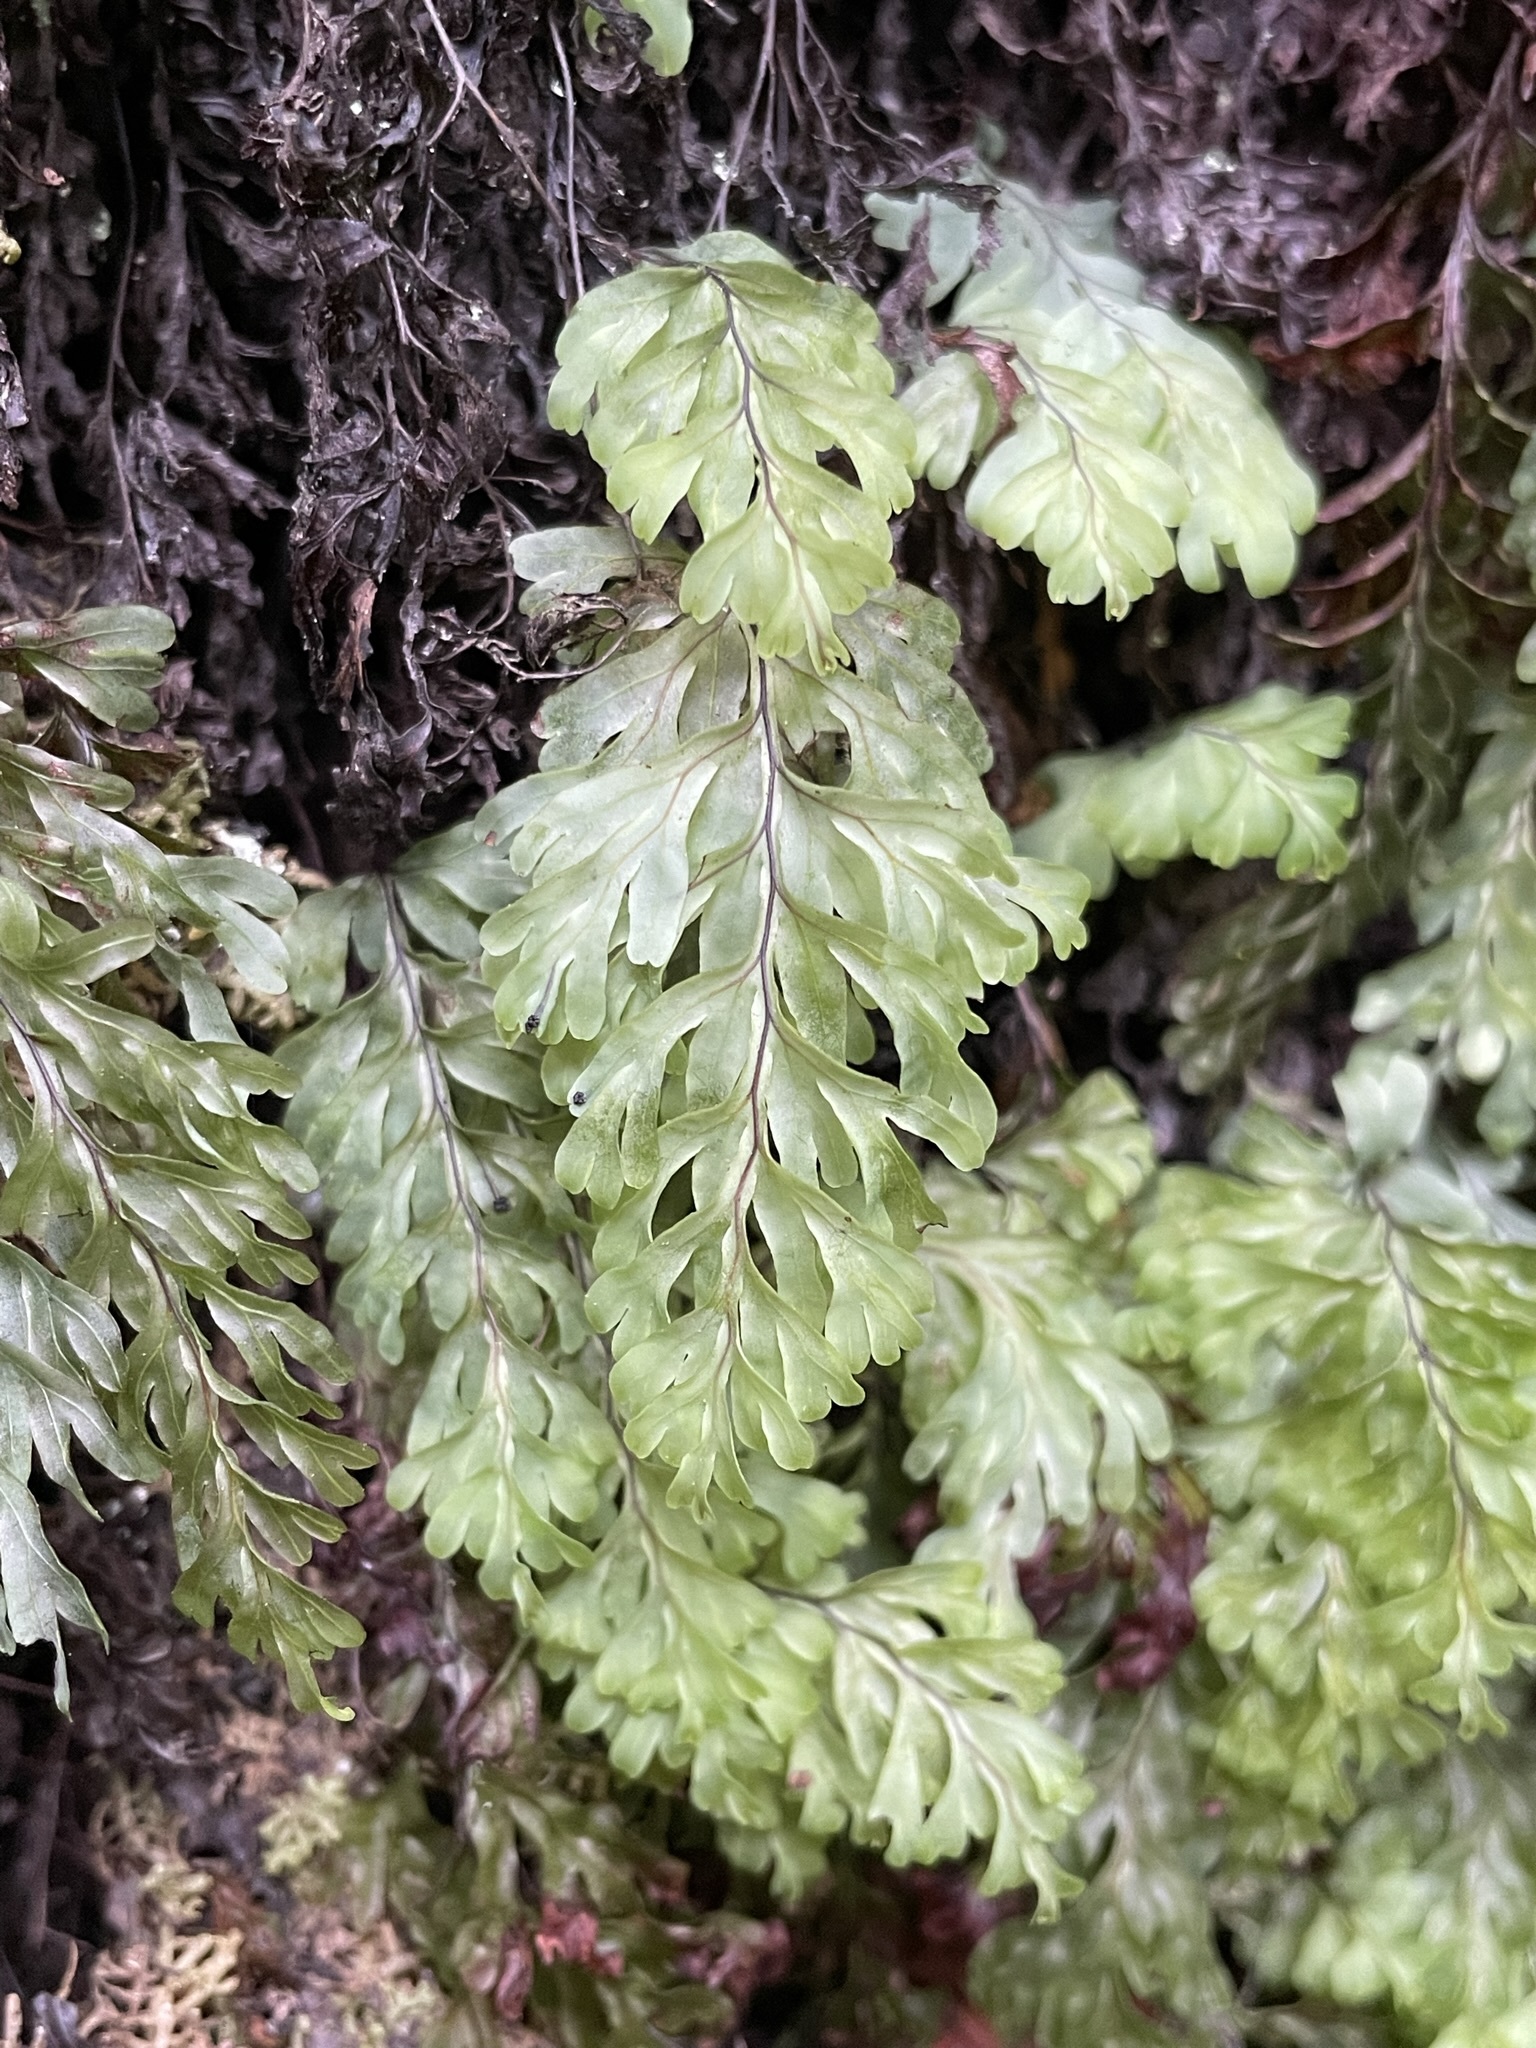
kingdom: Plantae
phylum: Tracheophyta
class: Polypodiopsida
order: Hymenophyllales
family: Hymenophyllaceae
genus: Hymenophyllum
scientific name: Hymenophyllum rarum
